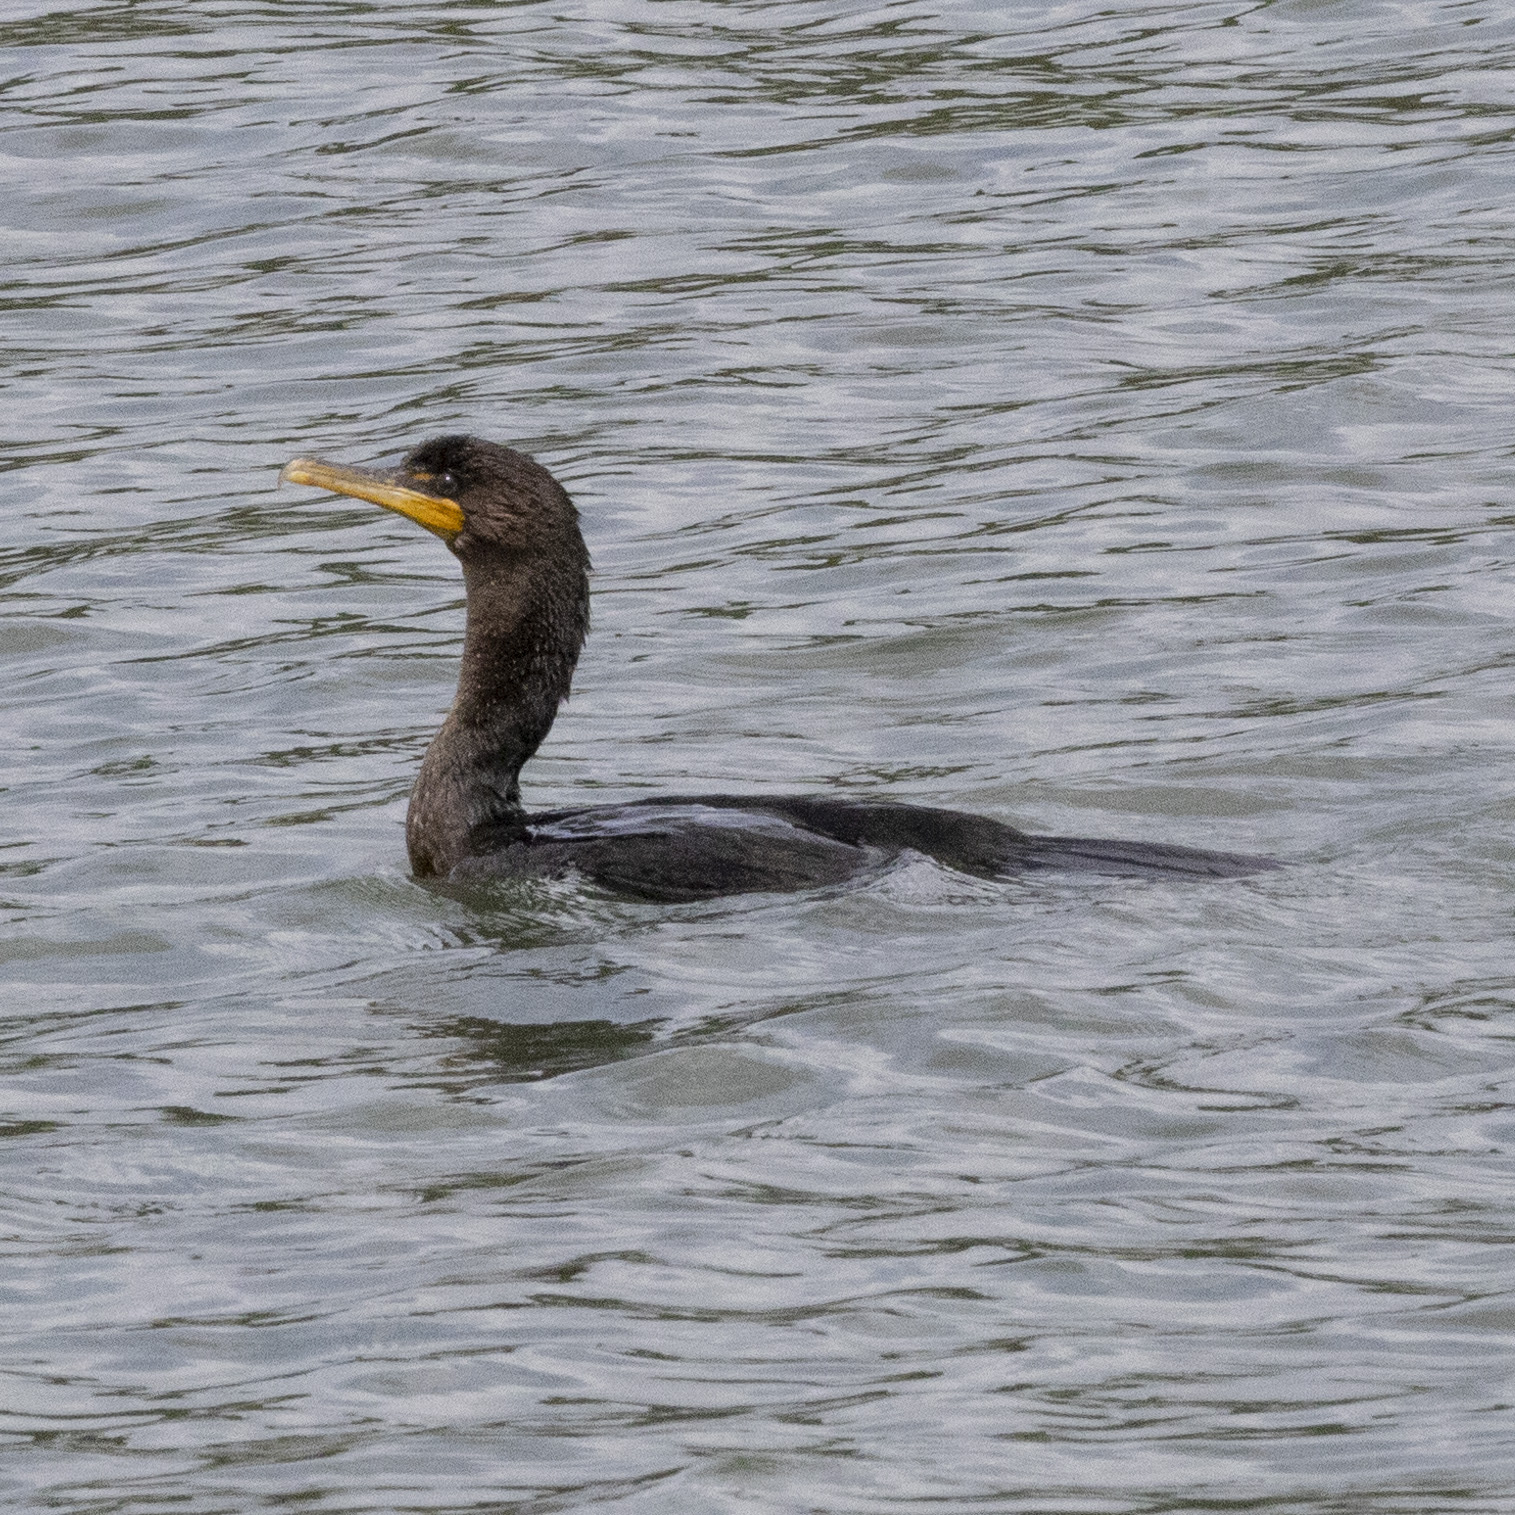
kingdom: Animalia
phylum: Chordata
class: Aves
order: Suliformes
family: Phalacrocoracidae
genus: Phalacrocorax
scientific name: Phalacrocorax auritus
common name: Double-crested cormorant
